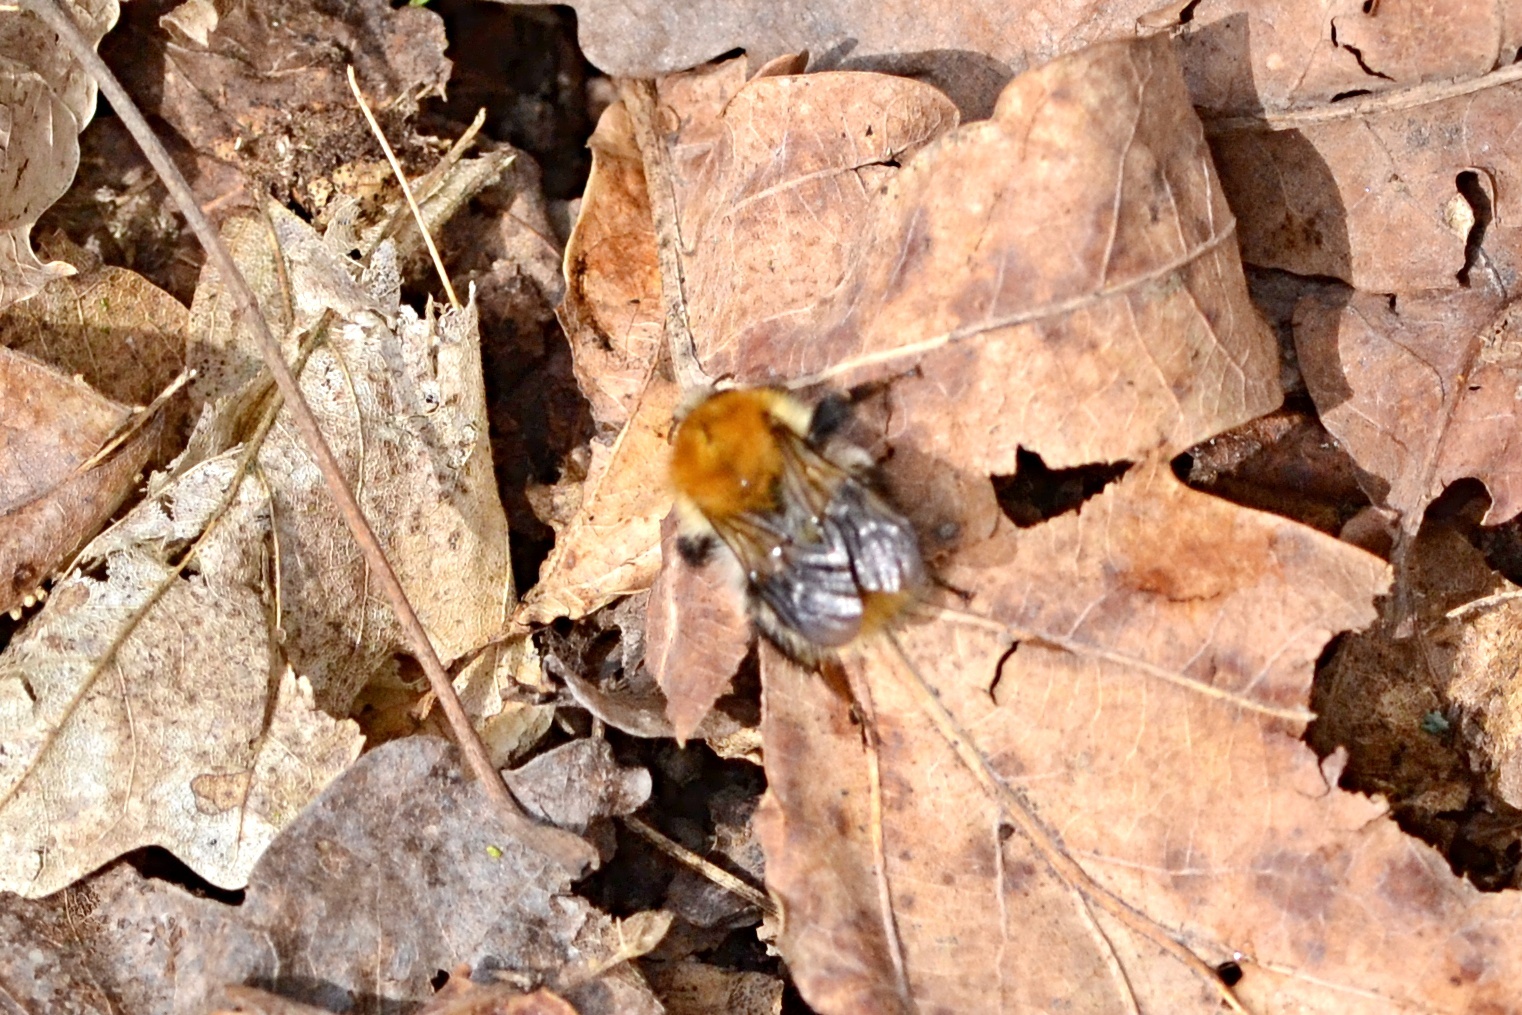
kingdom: Animalia
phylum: Arthropoda
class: Insecta
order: Hymenoptera
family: Apidae
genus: Bombus
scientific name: Bombus pascuorum
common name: Common carder bee
